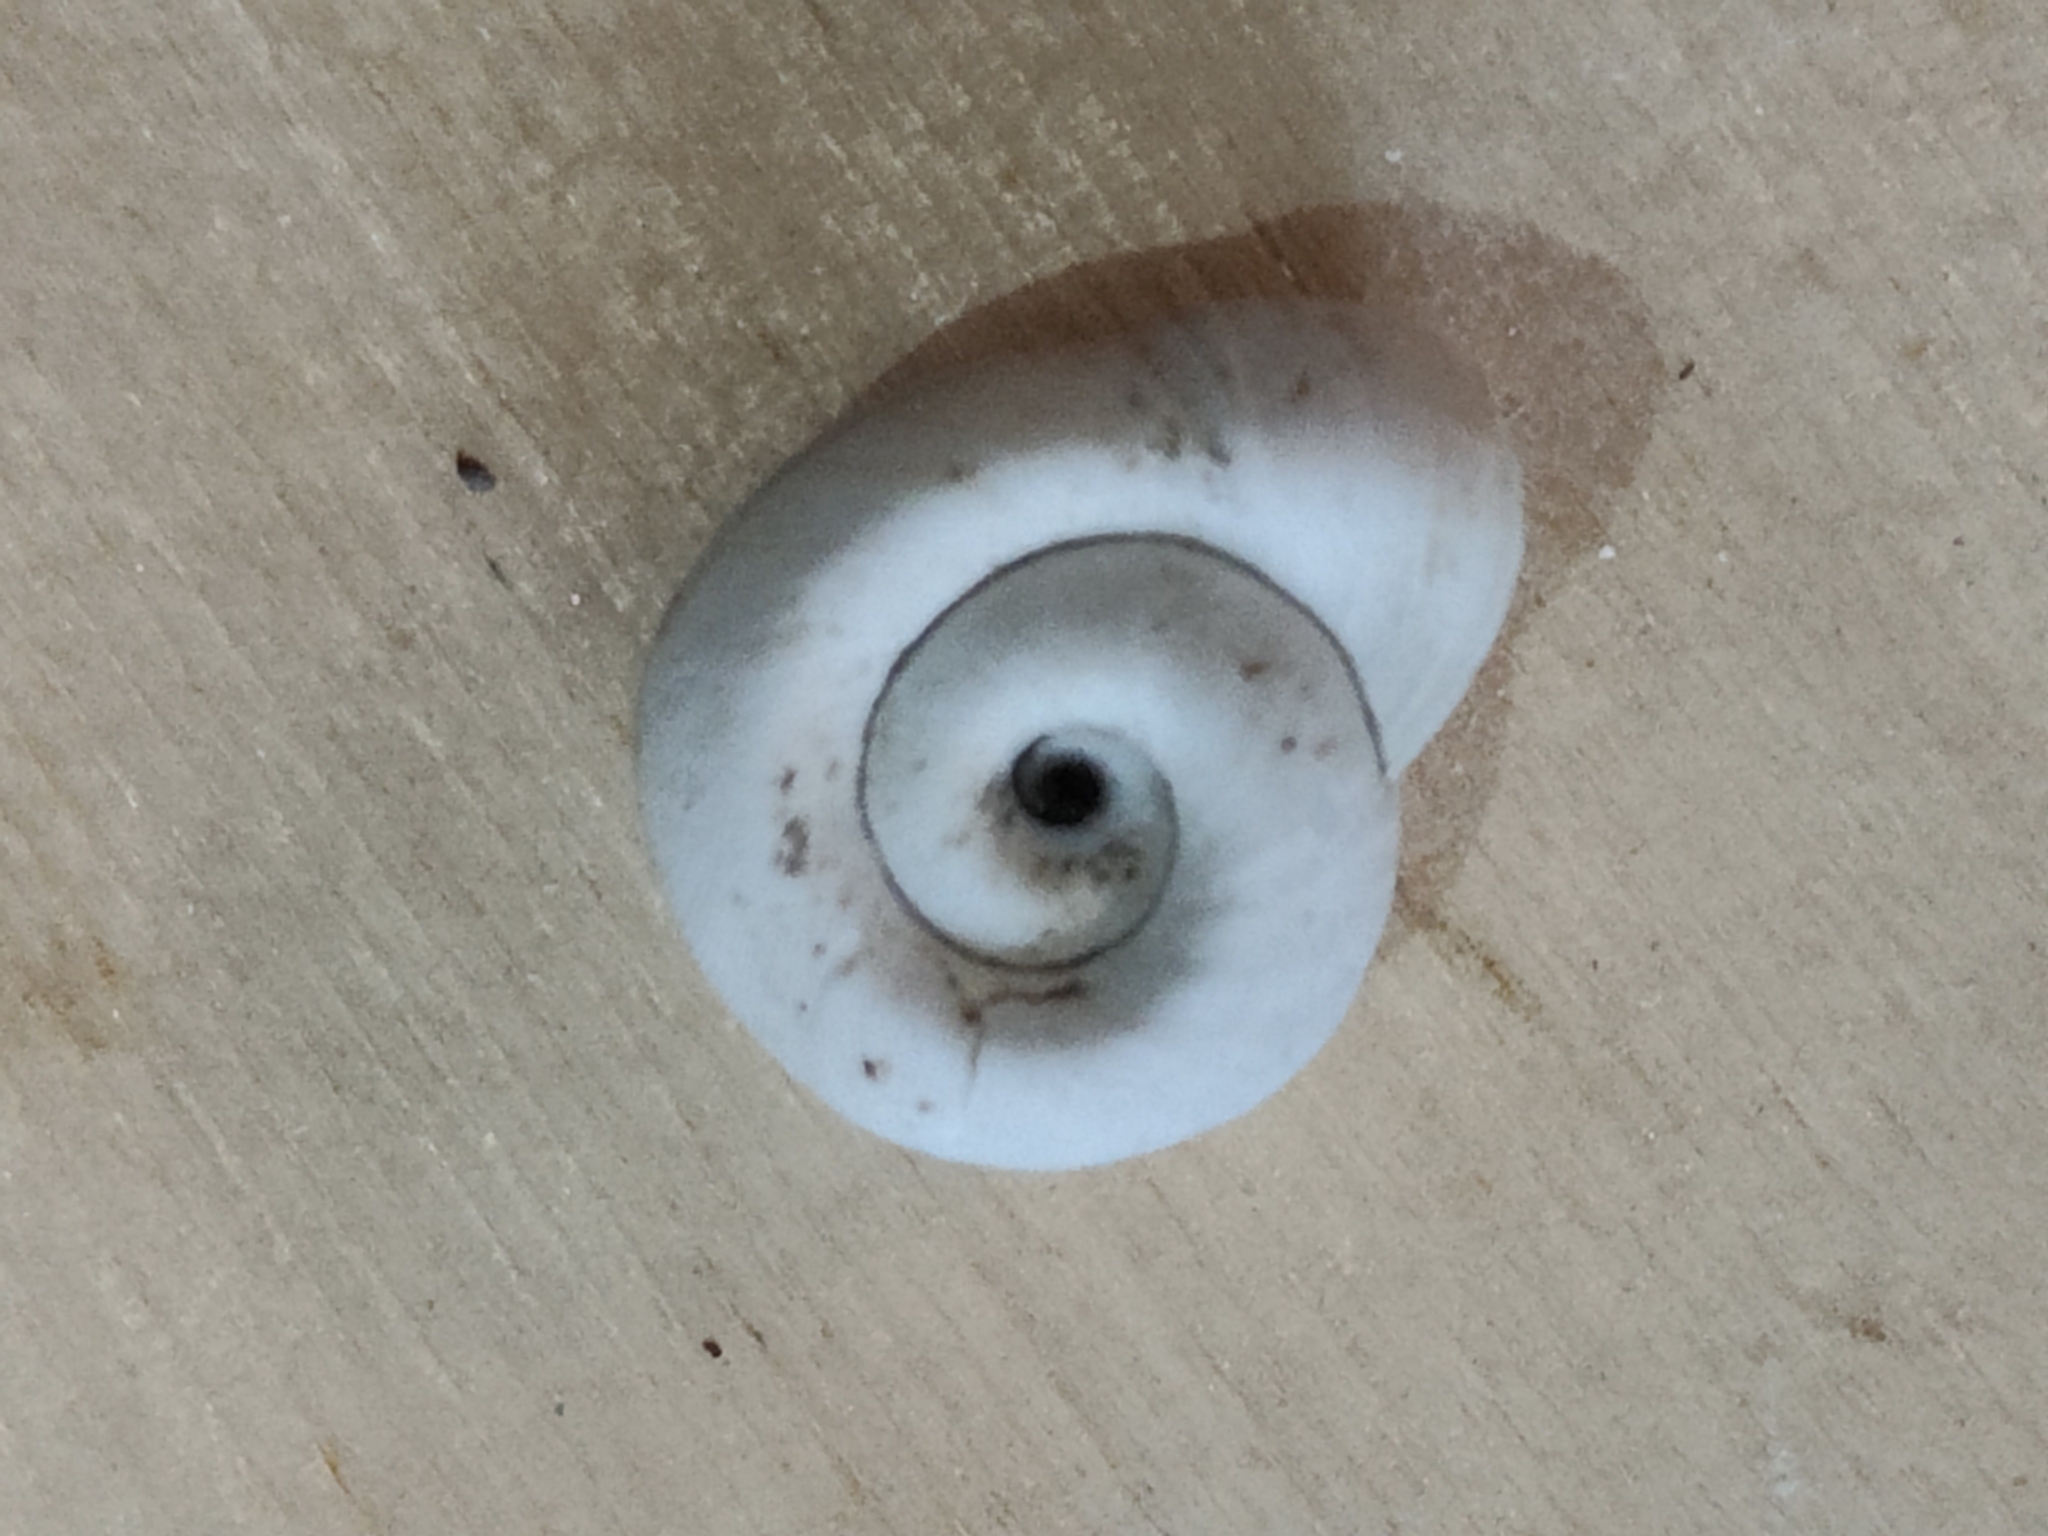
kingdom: Animalia
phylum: Mollusca
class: Gastropoda
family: Planorbidae
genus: Planorbella
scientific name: Planorbella trivolvis
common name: Marsh rams-horn
